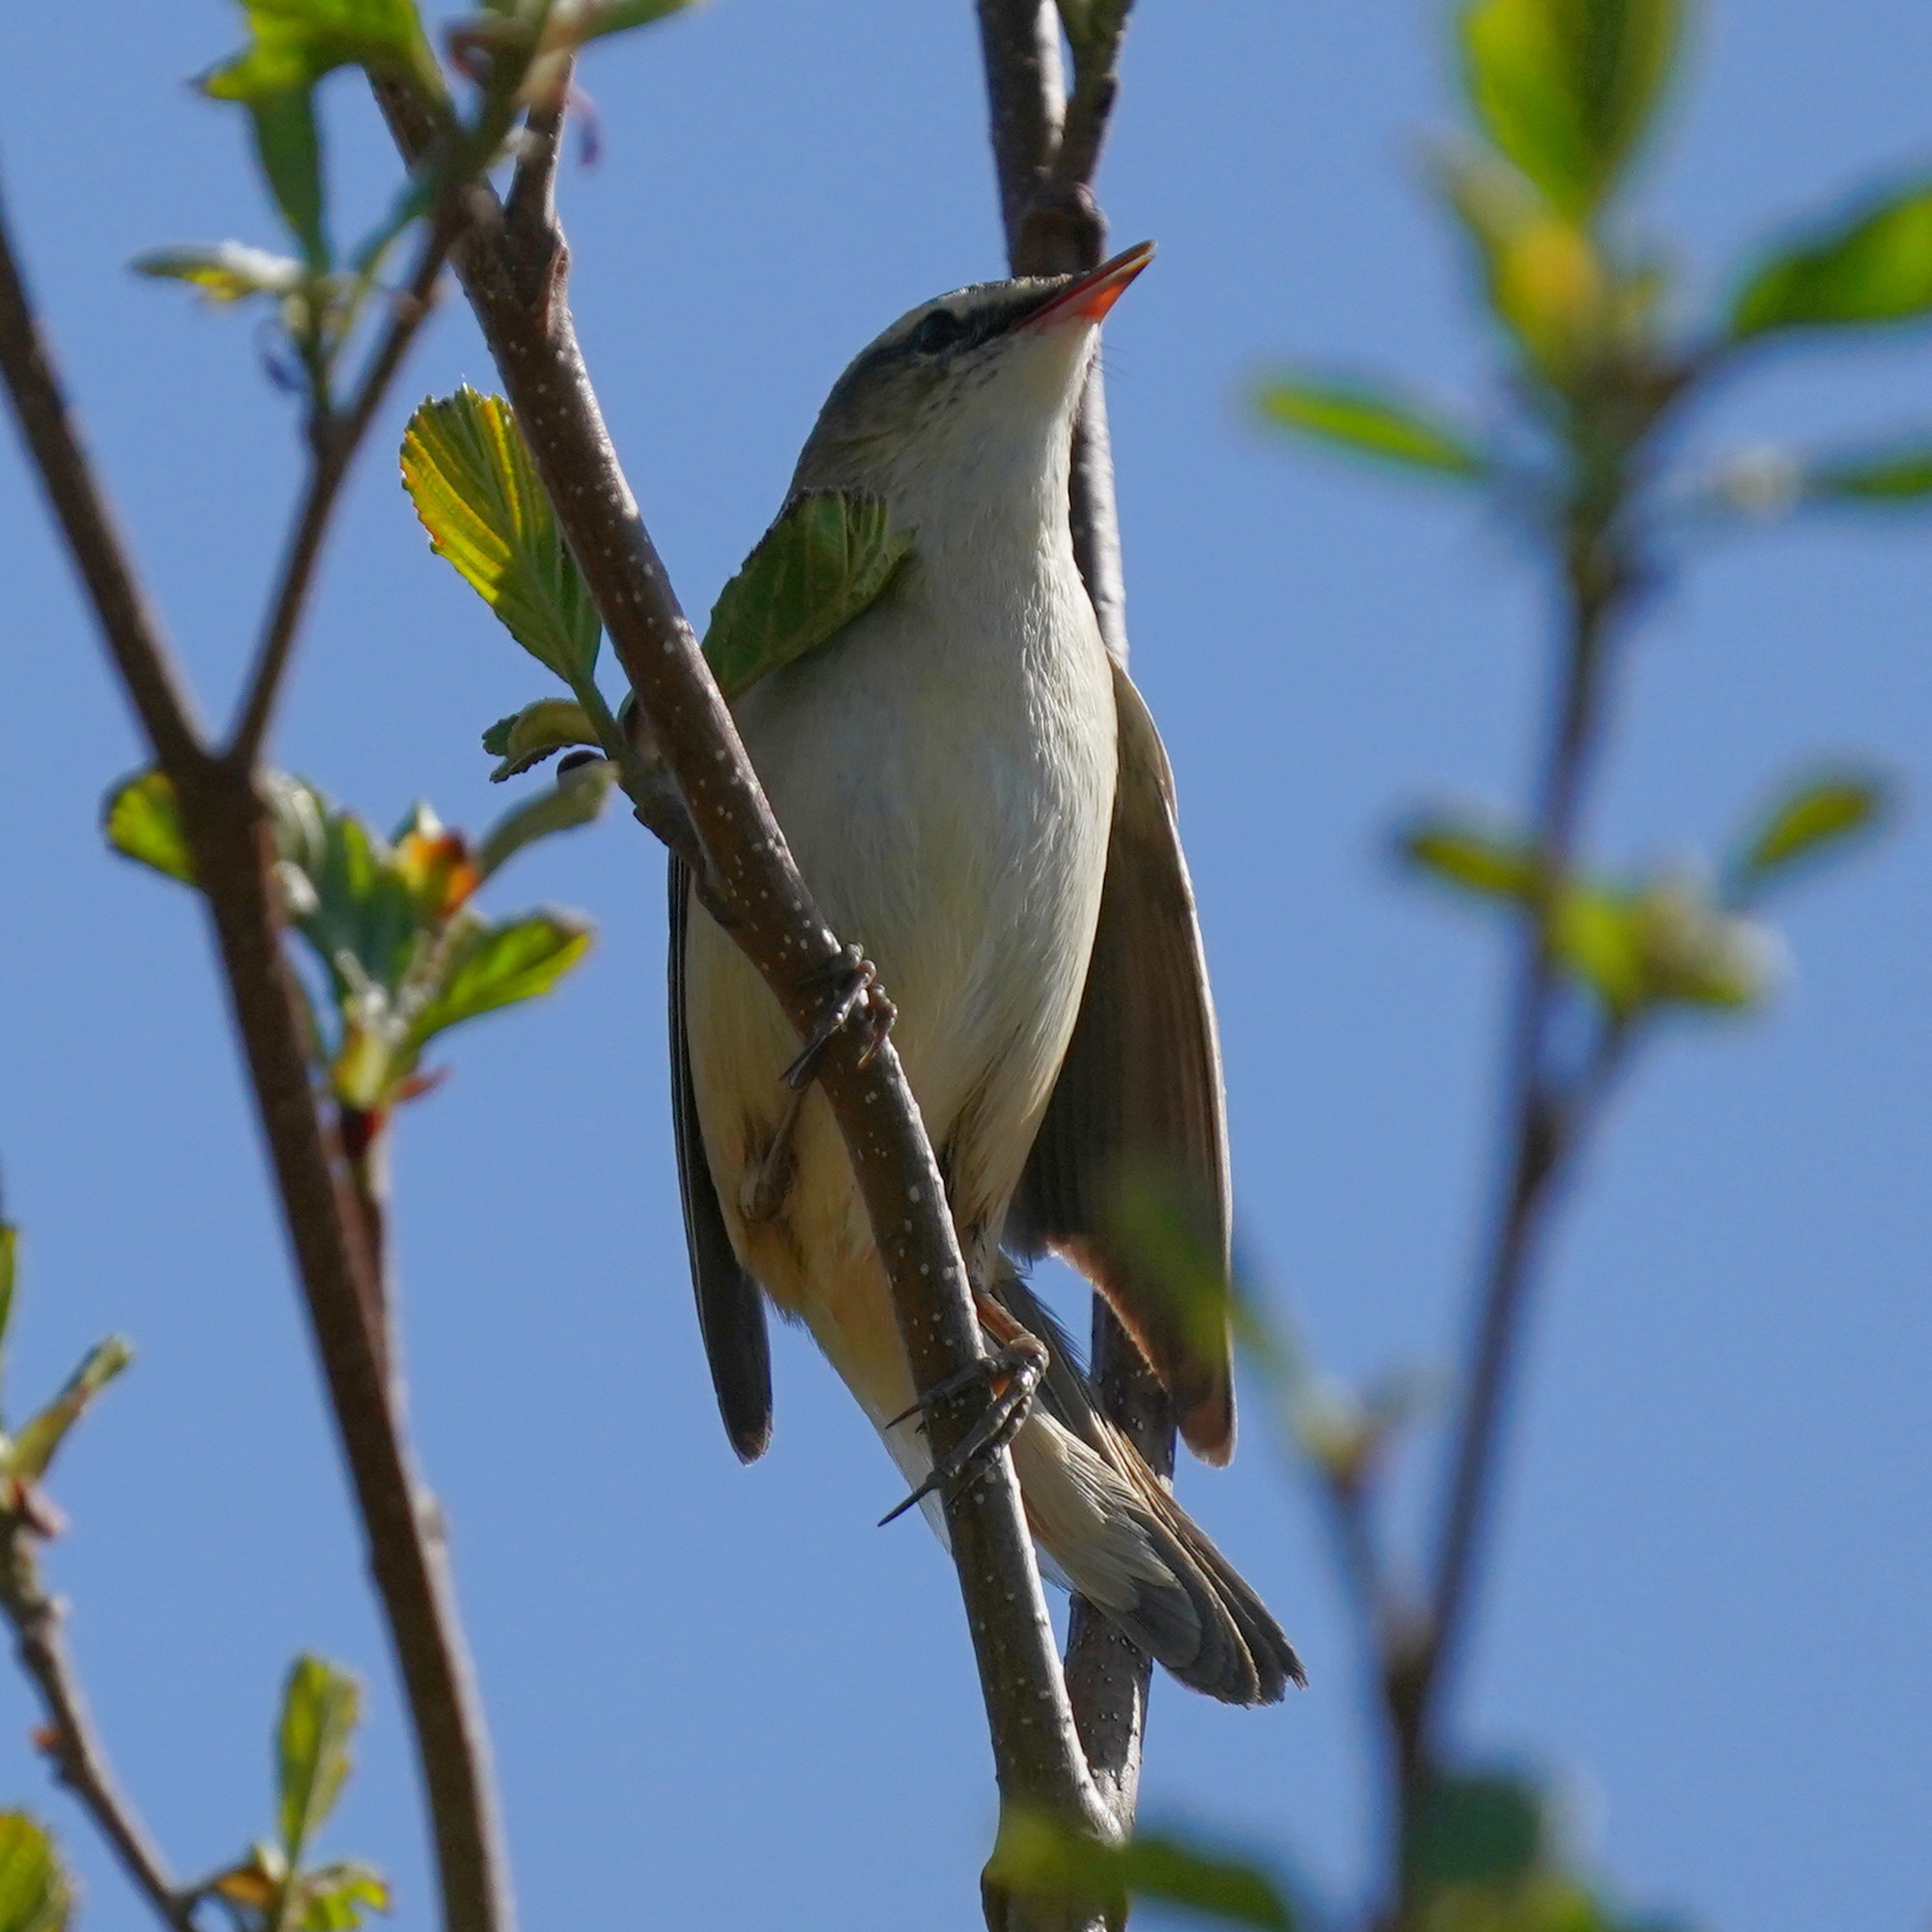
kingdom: Animalia
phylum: Chordata
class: Aves
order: Passeriformes
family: Acrocephalidae
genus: Acrocephalus
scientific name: Acrocephalus schoenobaenus
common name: Sedge warbler
